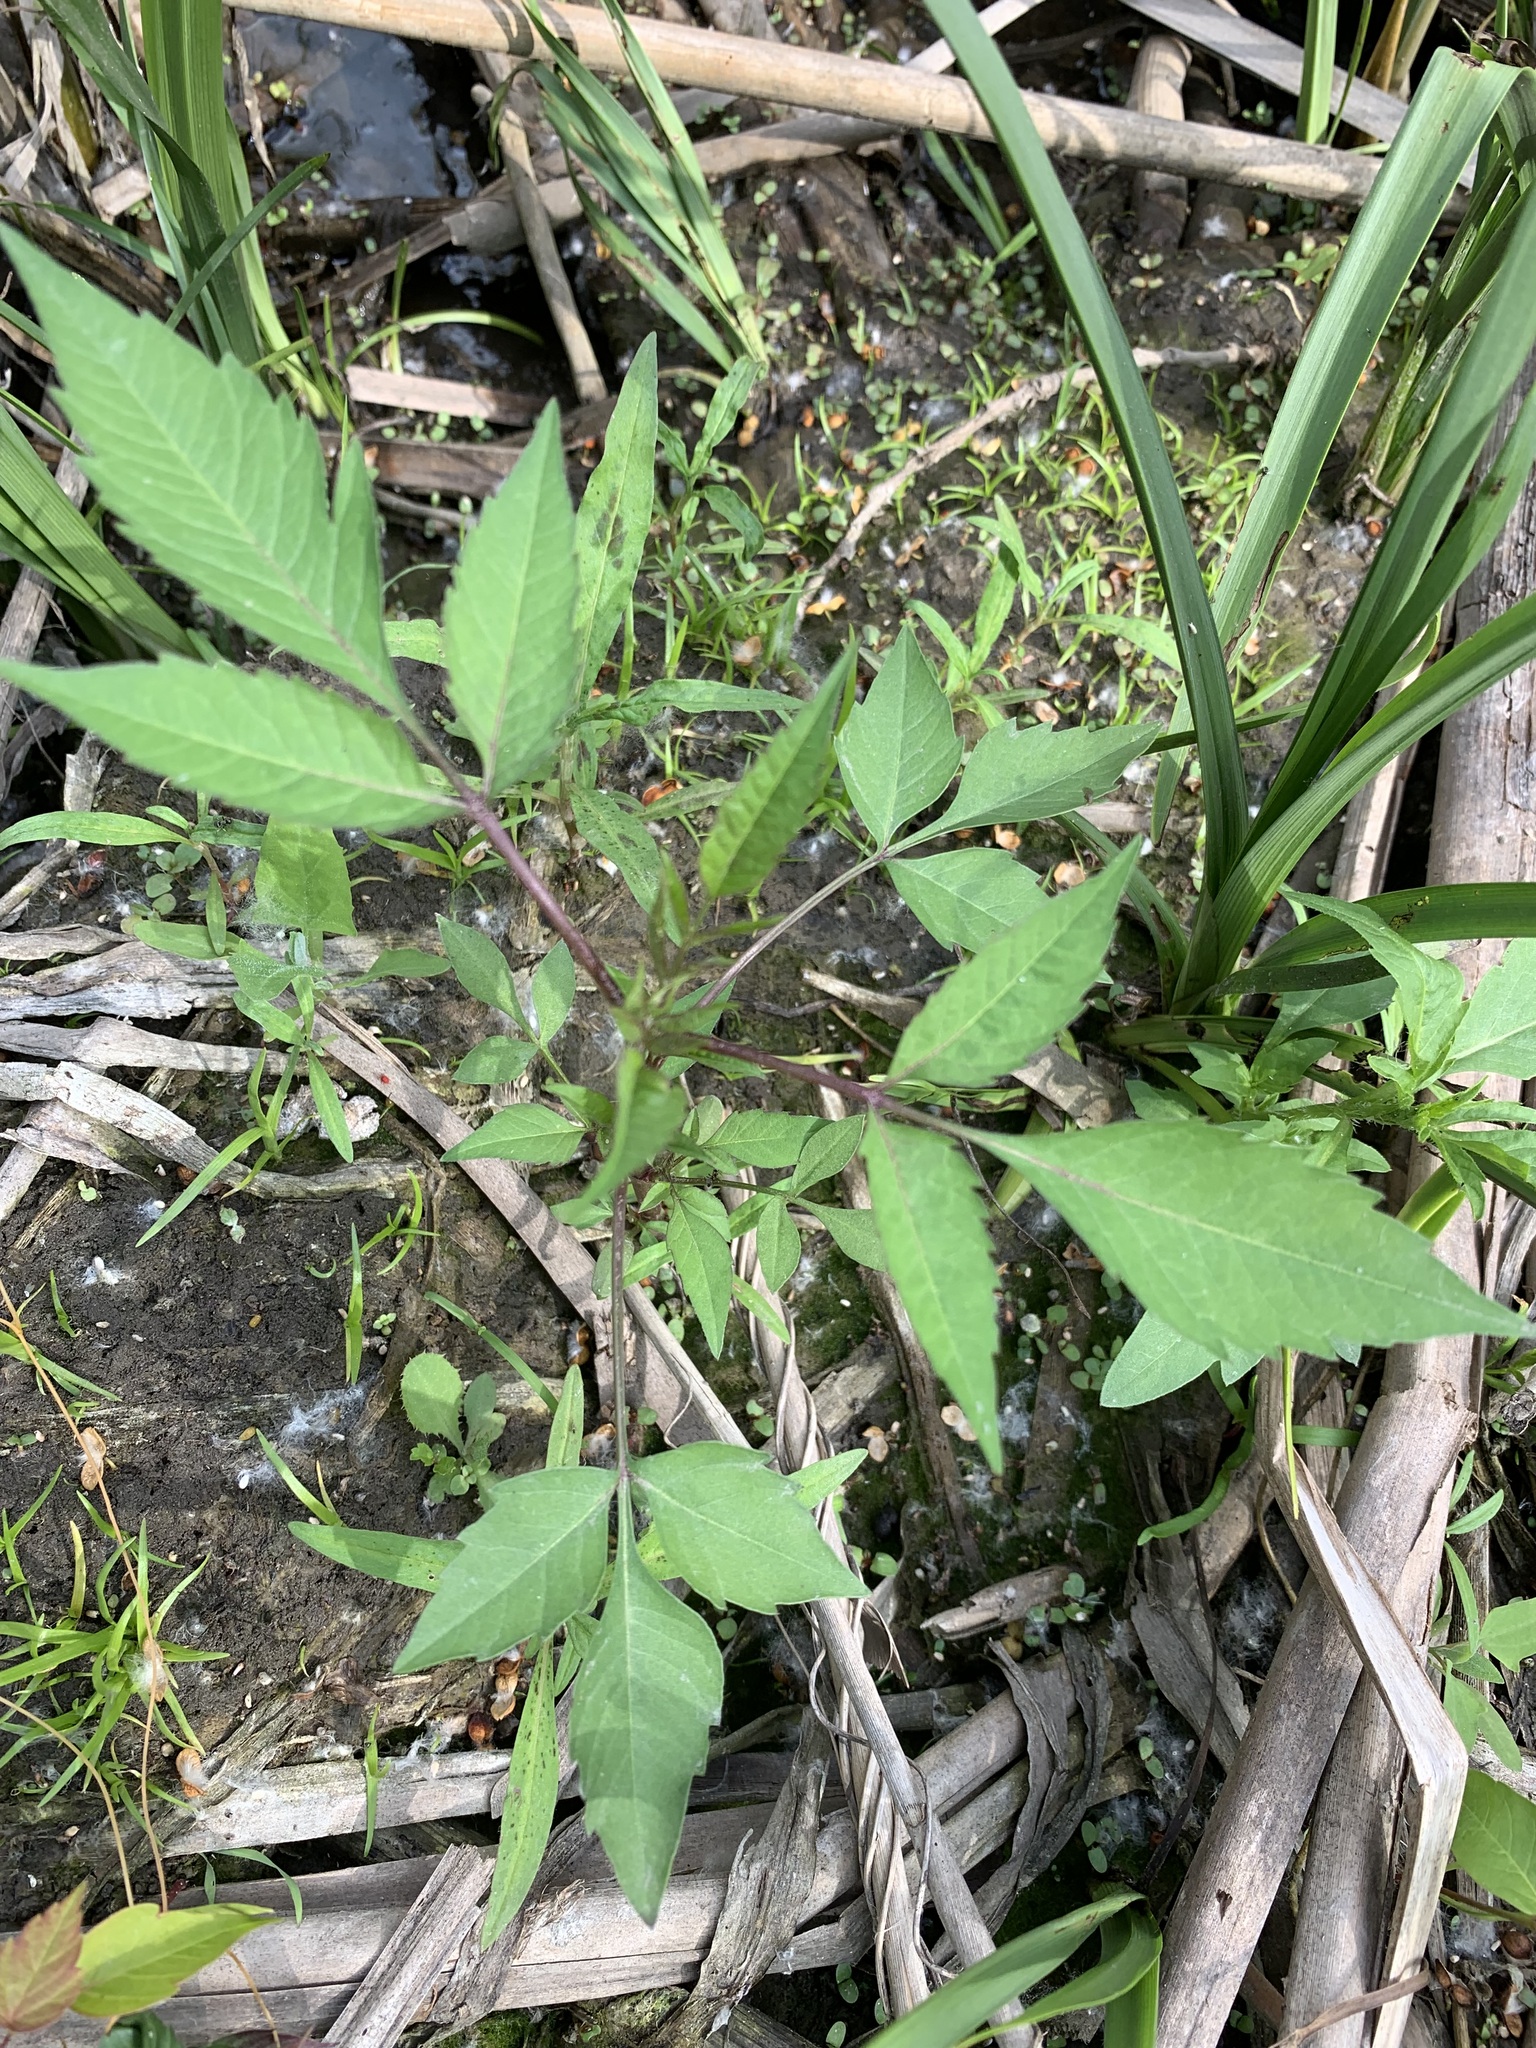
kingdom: Plantae
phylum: Tracheophyta
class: Magnoliopsida
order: Asterales
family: Asteraceae
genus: Bidens
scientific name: Bidens frondosa
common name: Beggarticks
